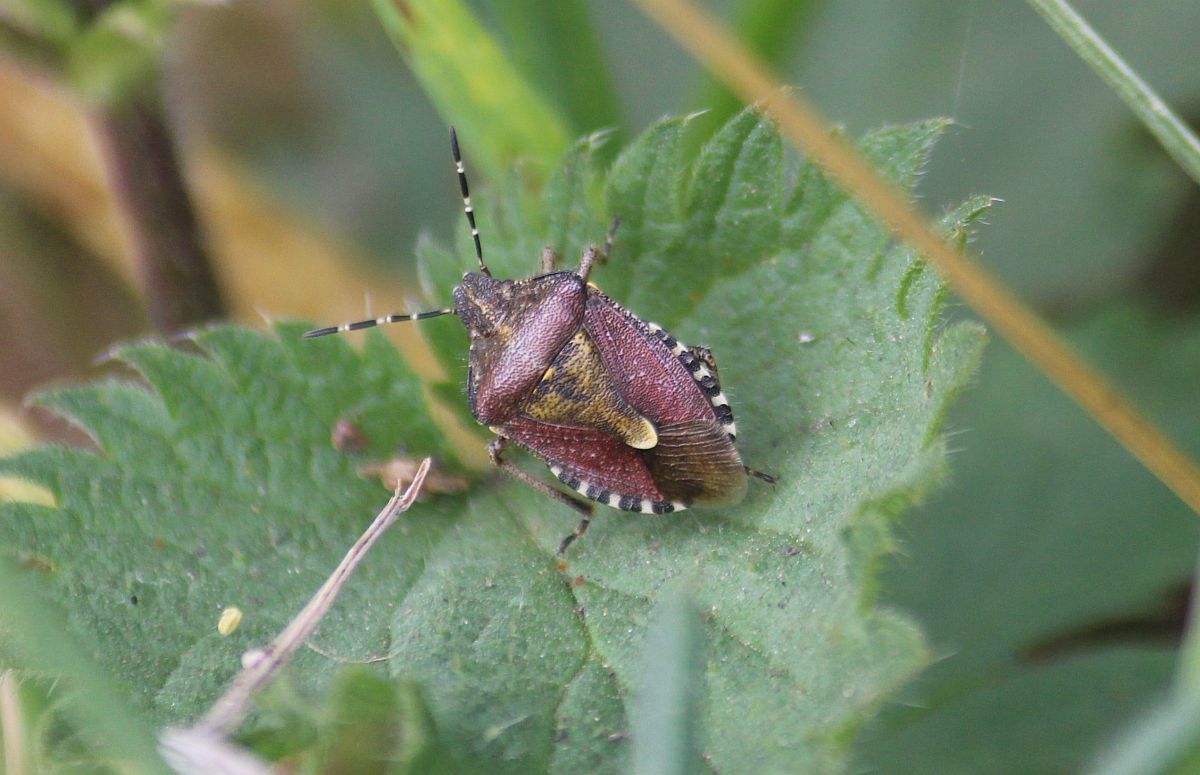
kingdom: Animalia
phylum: Arthropoda
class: Insecta
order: Hemiptera
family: Pentatomidae
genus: Dolycoris
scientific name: Dolycoris baccarum
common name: Sloe bug
